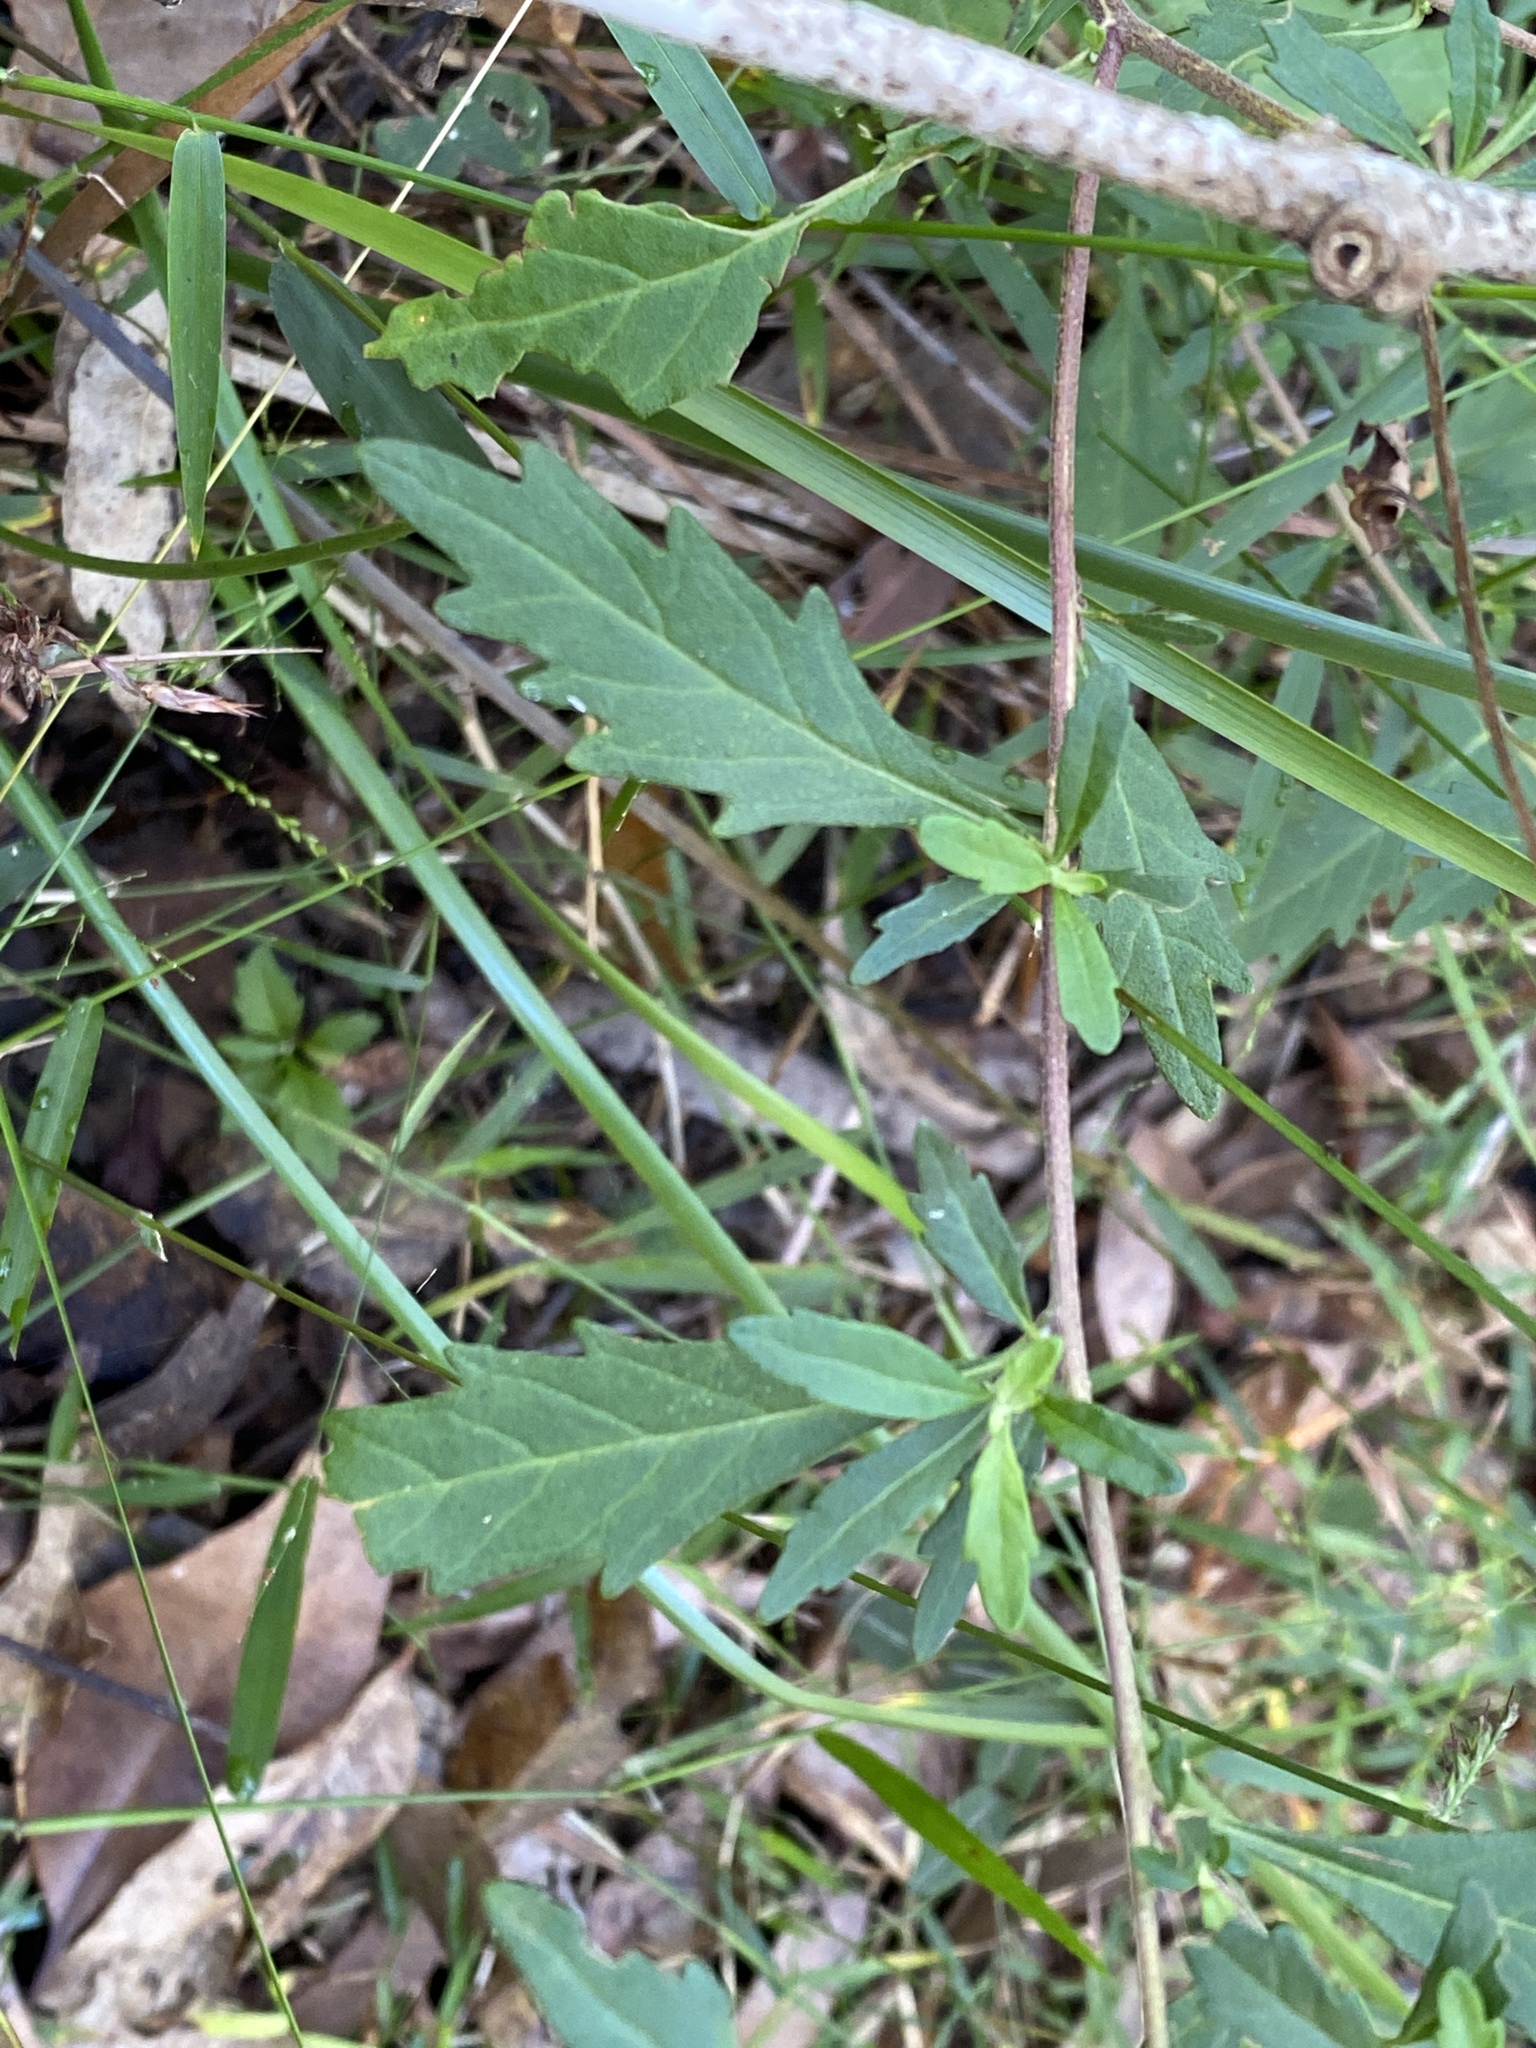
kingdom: Plantae
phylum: Tracheophyta
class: Magnoliopsida
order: Asterales
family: Asteraceae
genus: Centratherum
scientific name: Centratherum punctatum
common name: Larkdaisy
